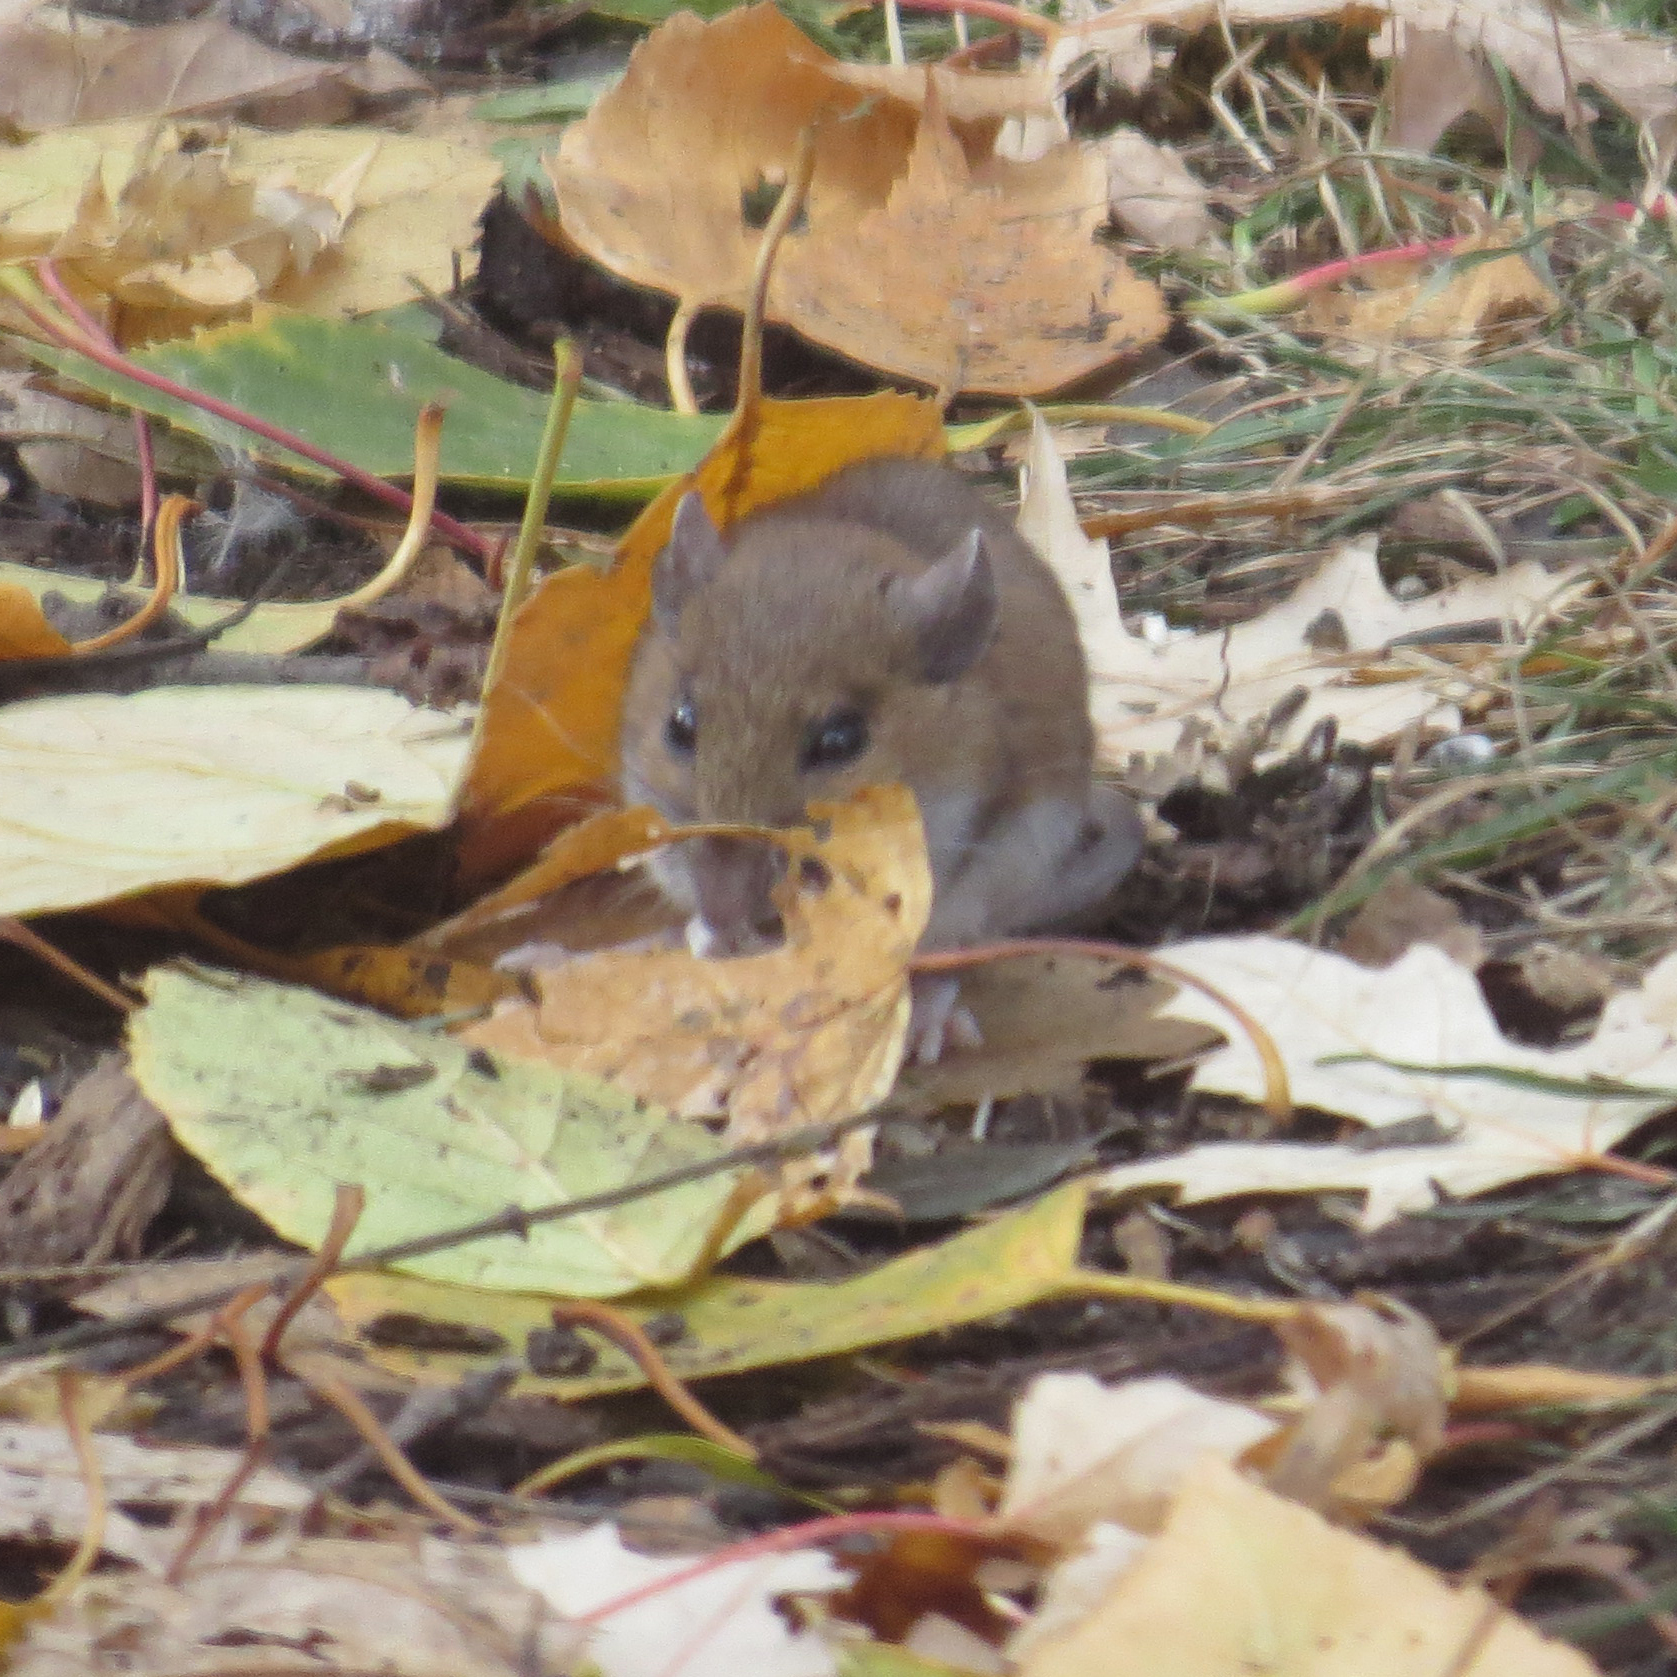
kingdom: Animalia
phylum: Chordata
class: Mammalia
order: Rodentia
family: Cricetidae
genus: Peromyscus
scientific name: Peromyscus leucopus
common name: White-footed deermouse
